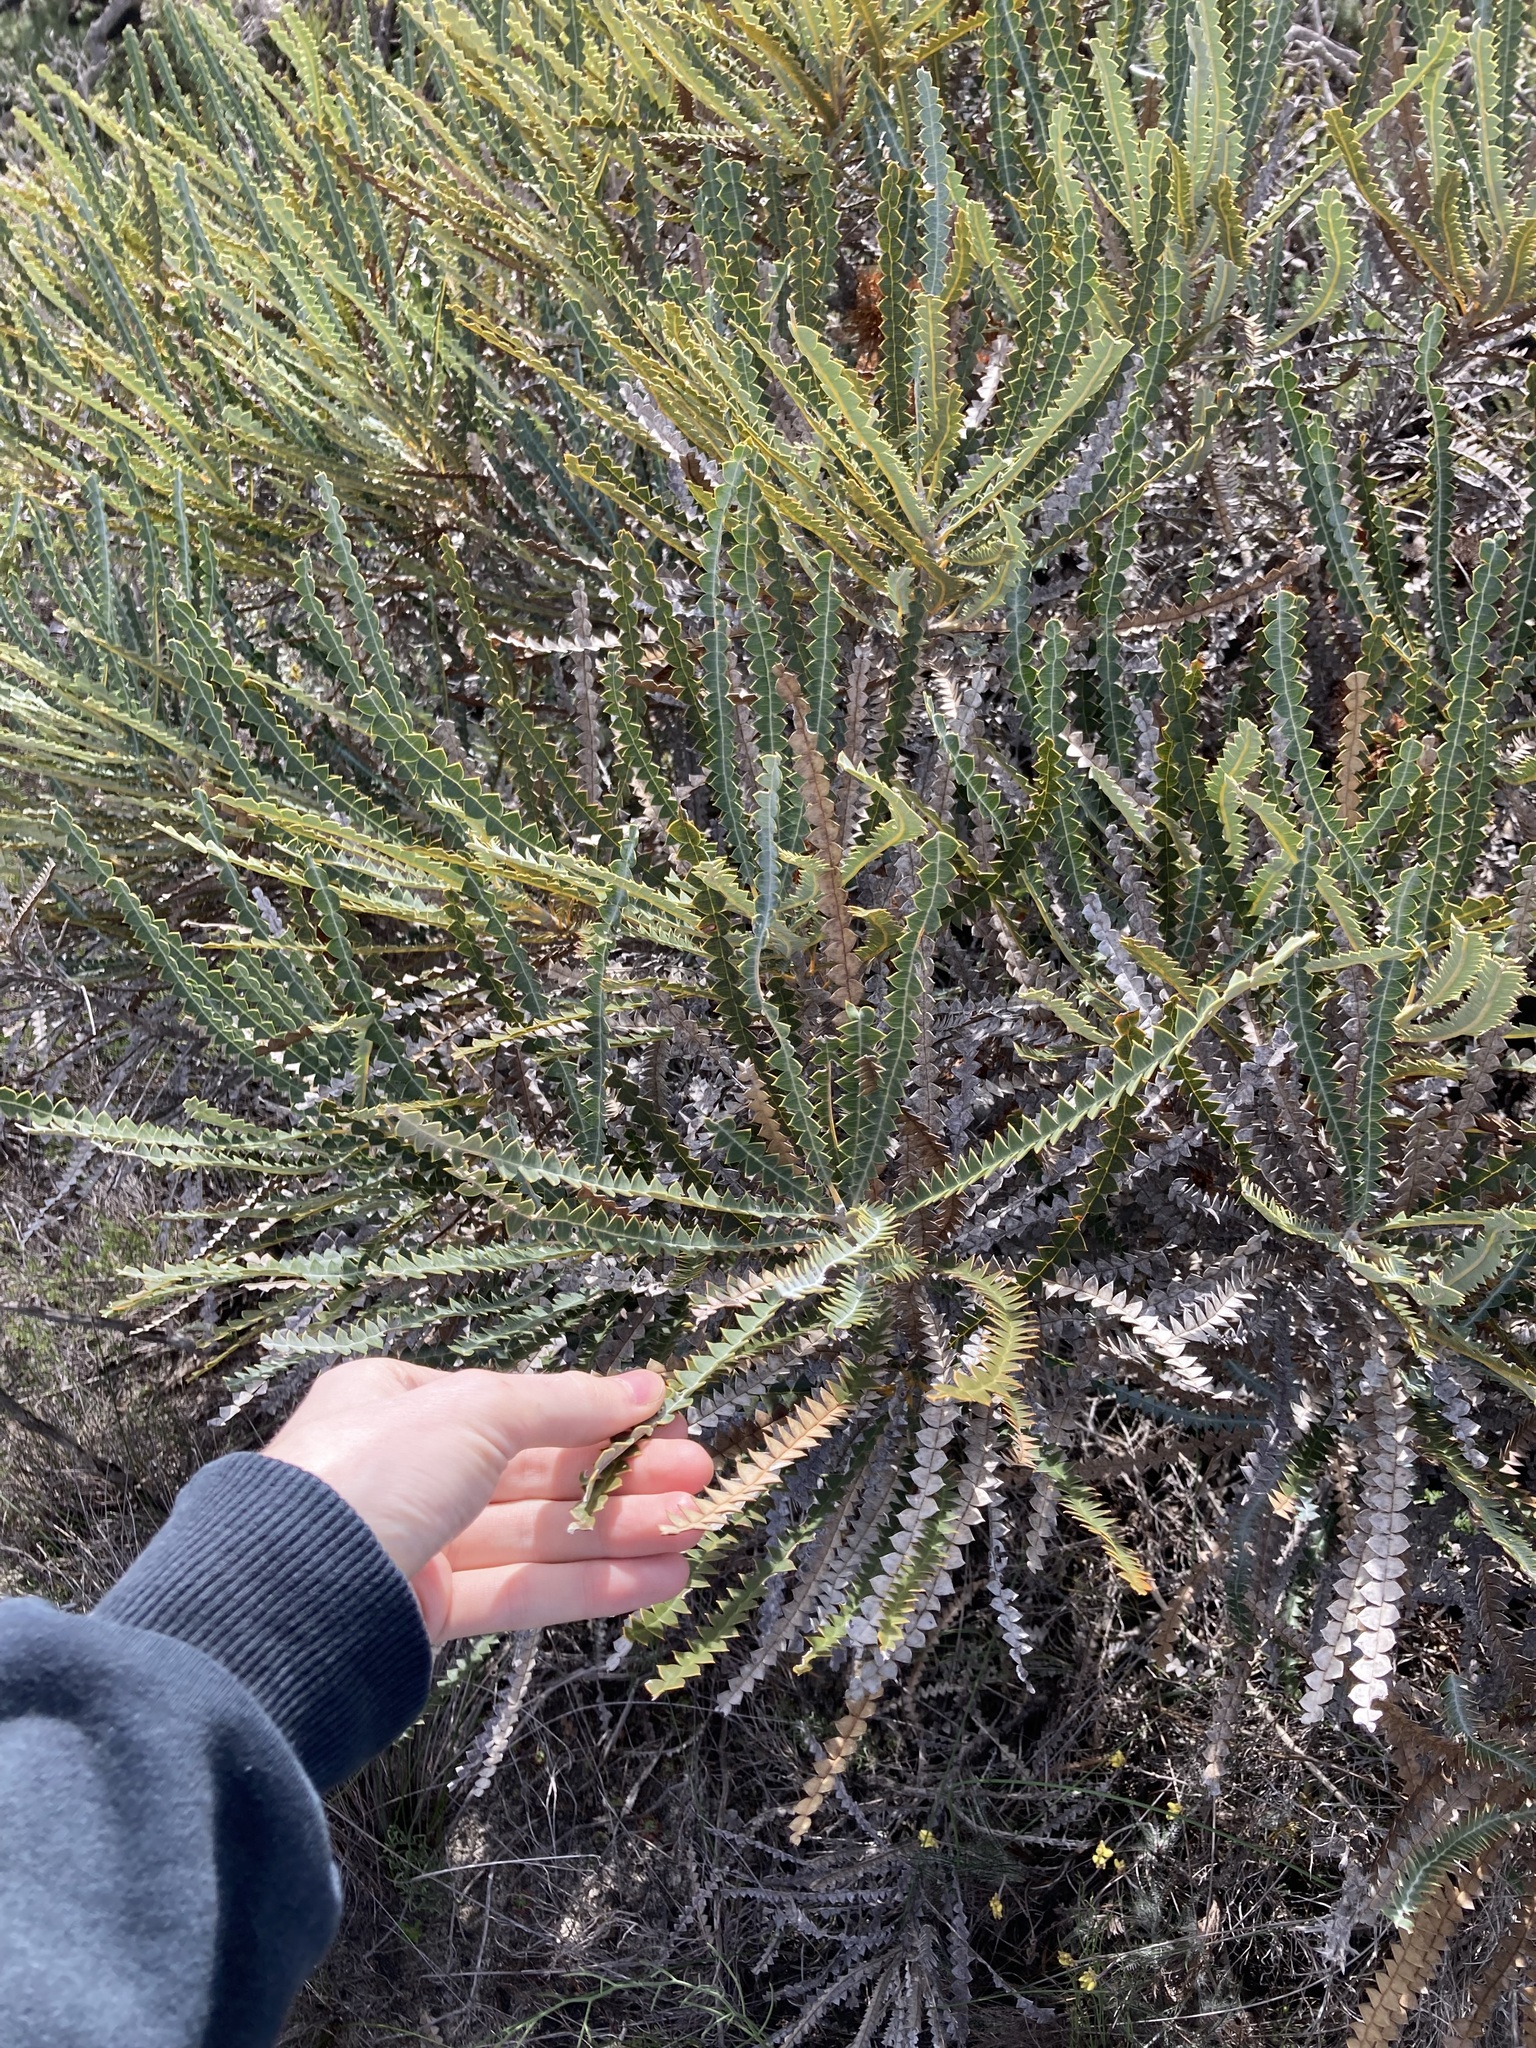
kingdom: Plantae
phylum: Tracheophyta
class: Magnoliopsida
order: Proteales
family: Proteaceae
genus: Banksia
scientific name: Banksia candolleana
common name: Propeller banksia
